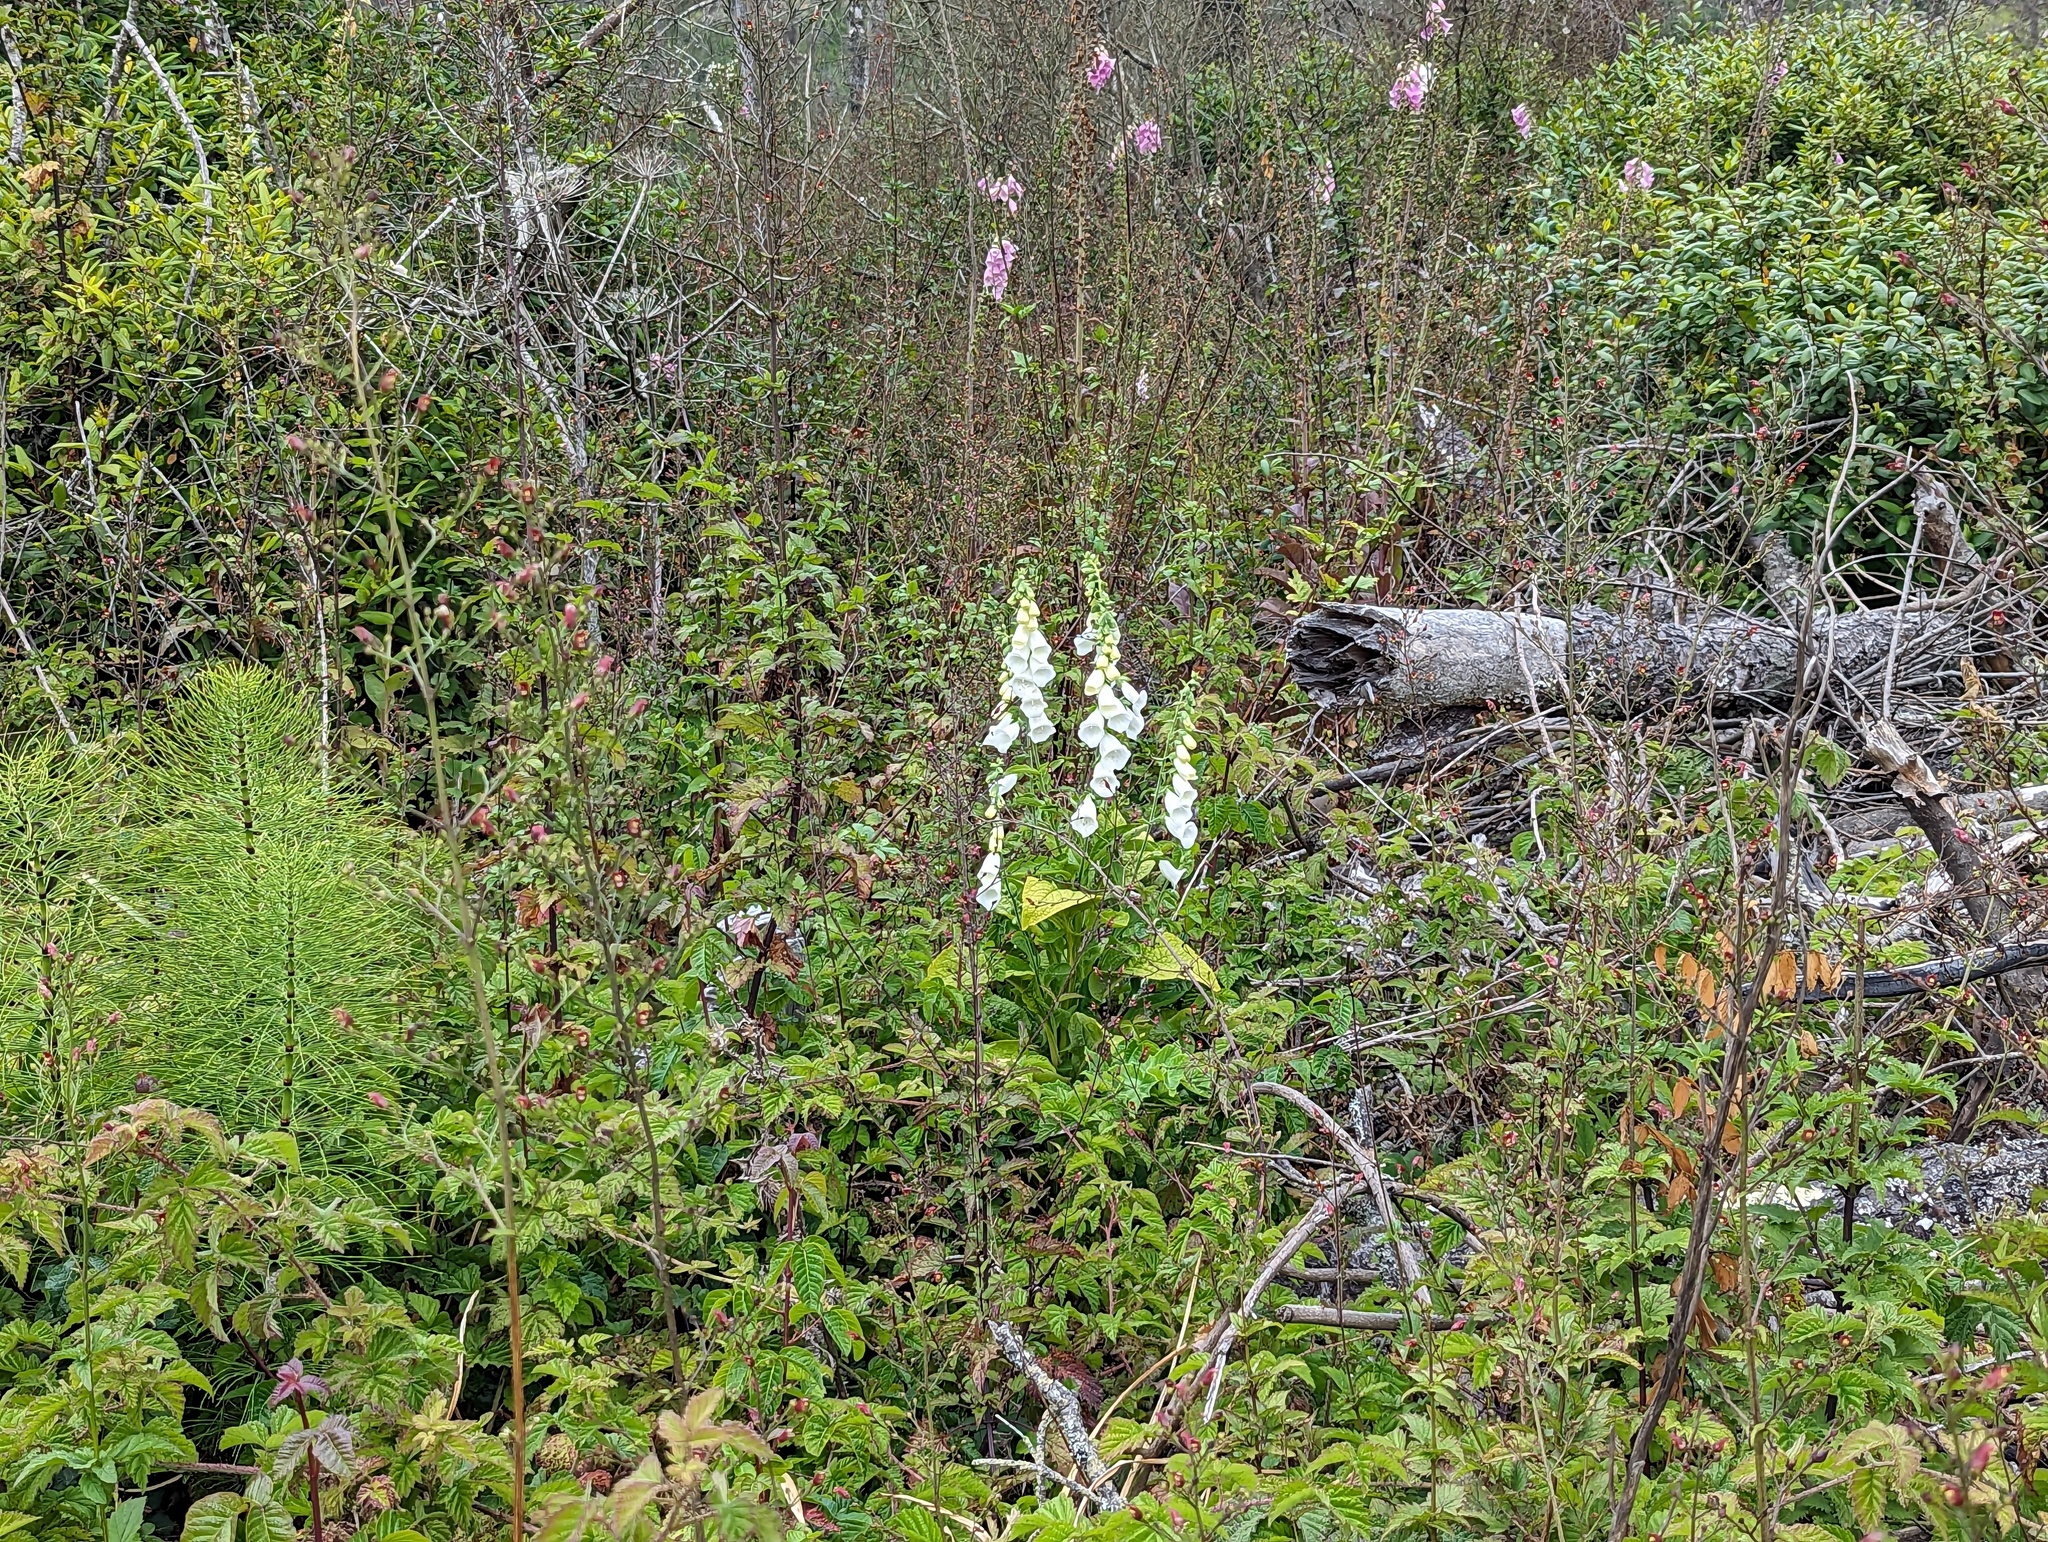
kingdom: Plantae
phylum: Tracheophyta
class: Magnoliopsida
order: Lamiales
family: Plantaginaceae
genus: Digitalis
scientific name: Digitalis purpurea
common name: Foxglove
